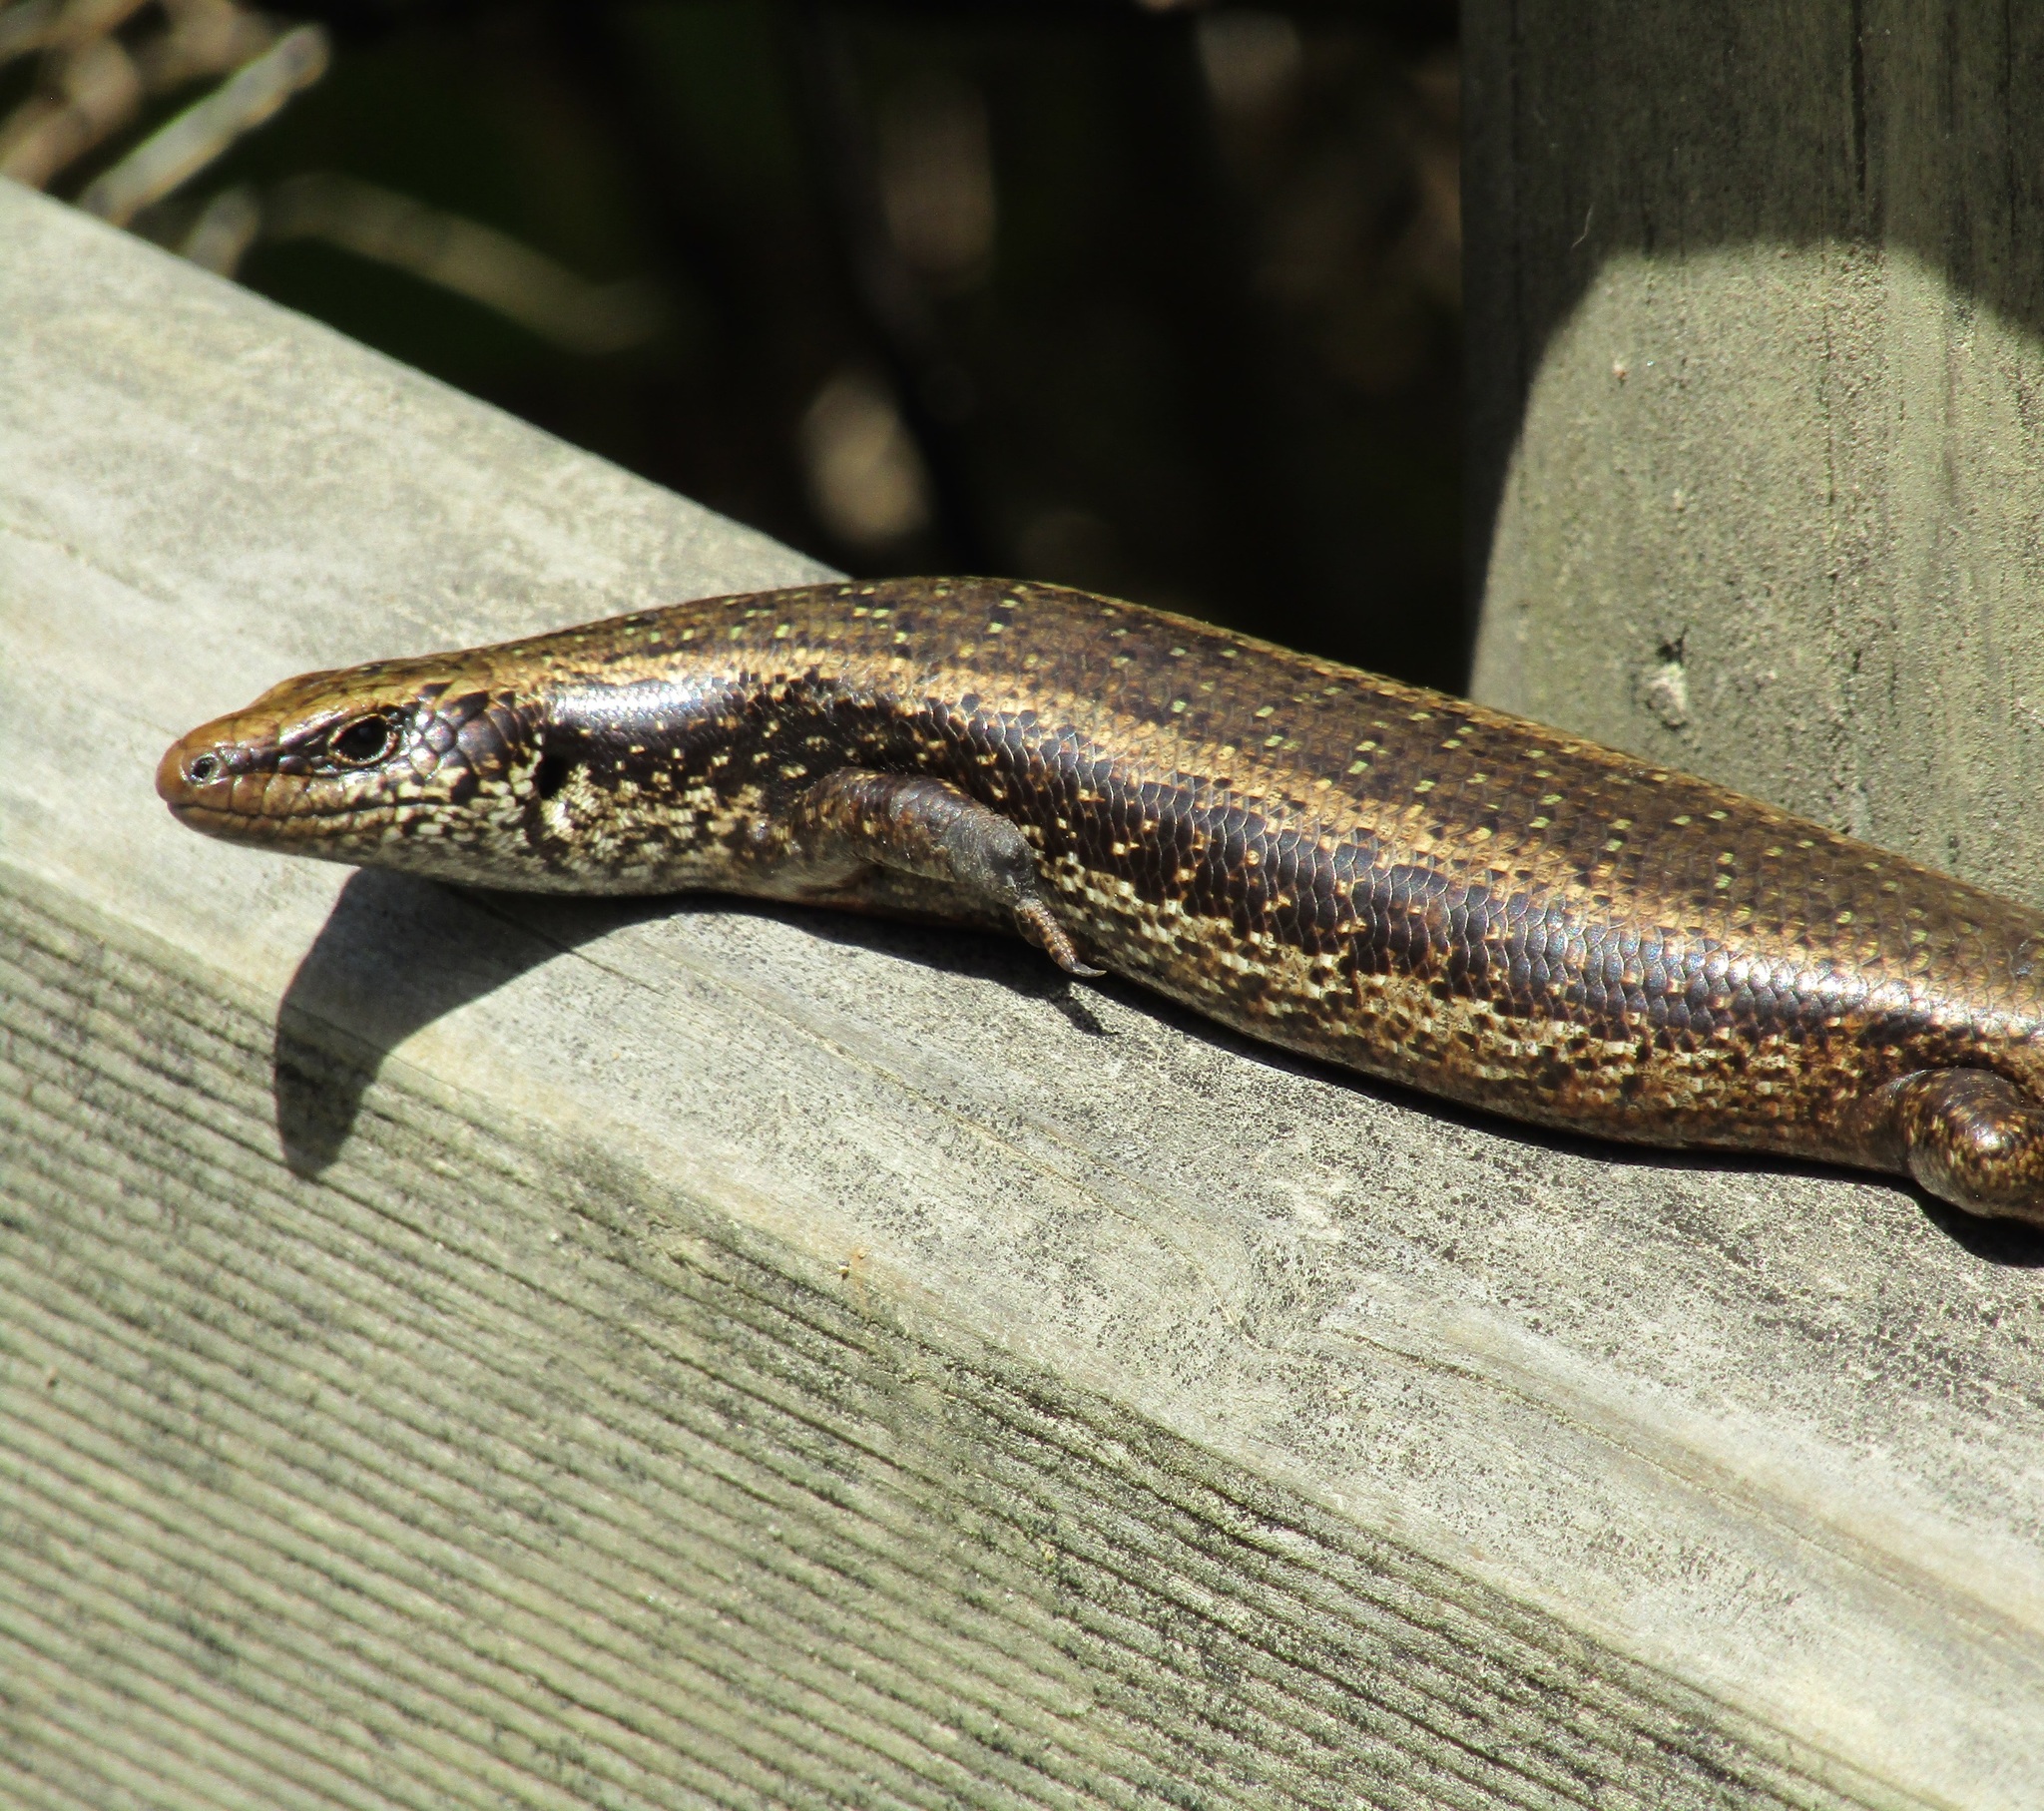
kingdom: Animalia
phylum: Chordata
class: Squamata
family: Scincidae
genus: Oligosoma
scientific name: Oligosoma kokowai
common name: Northern spotted skink
